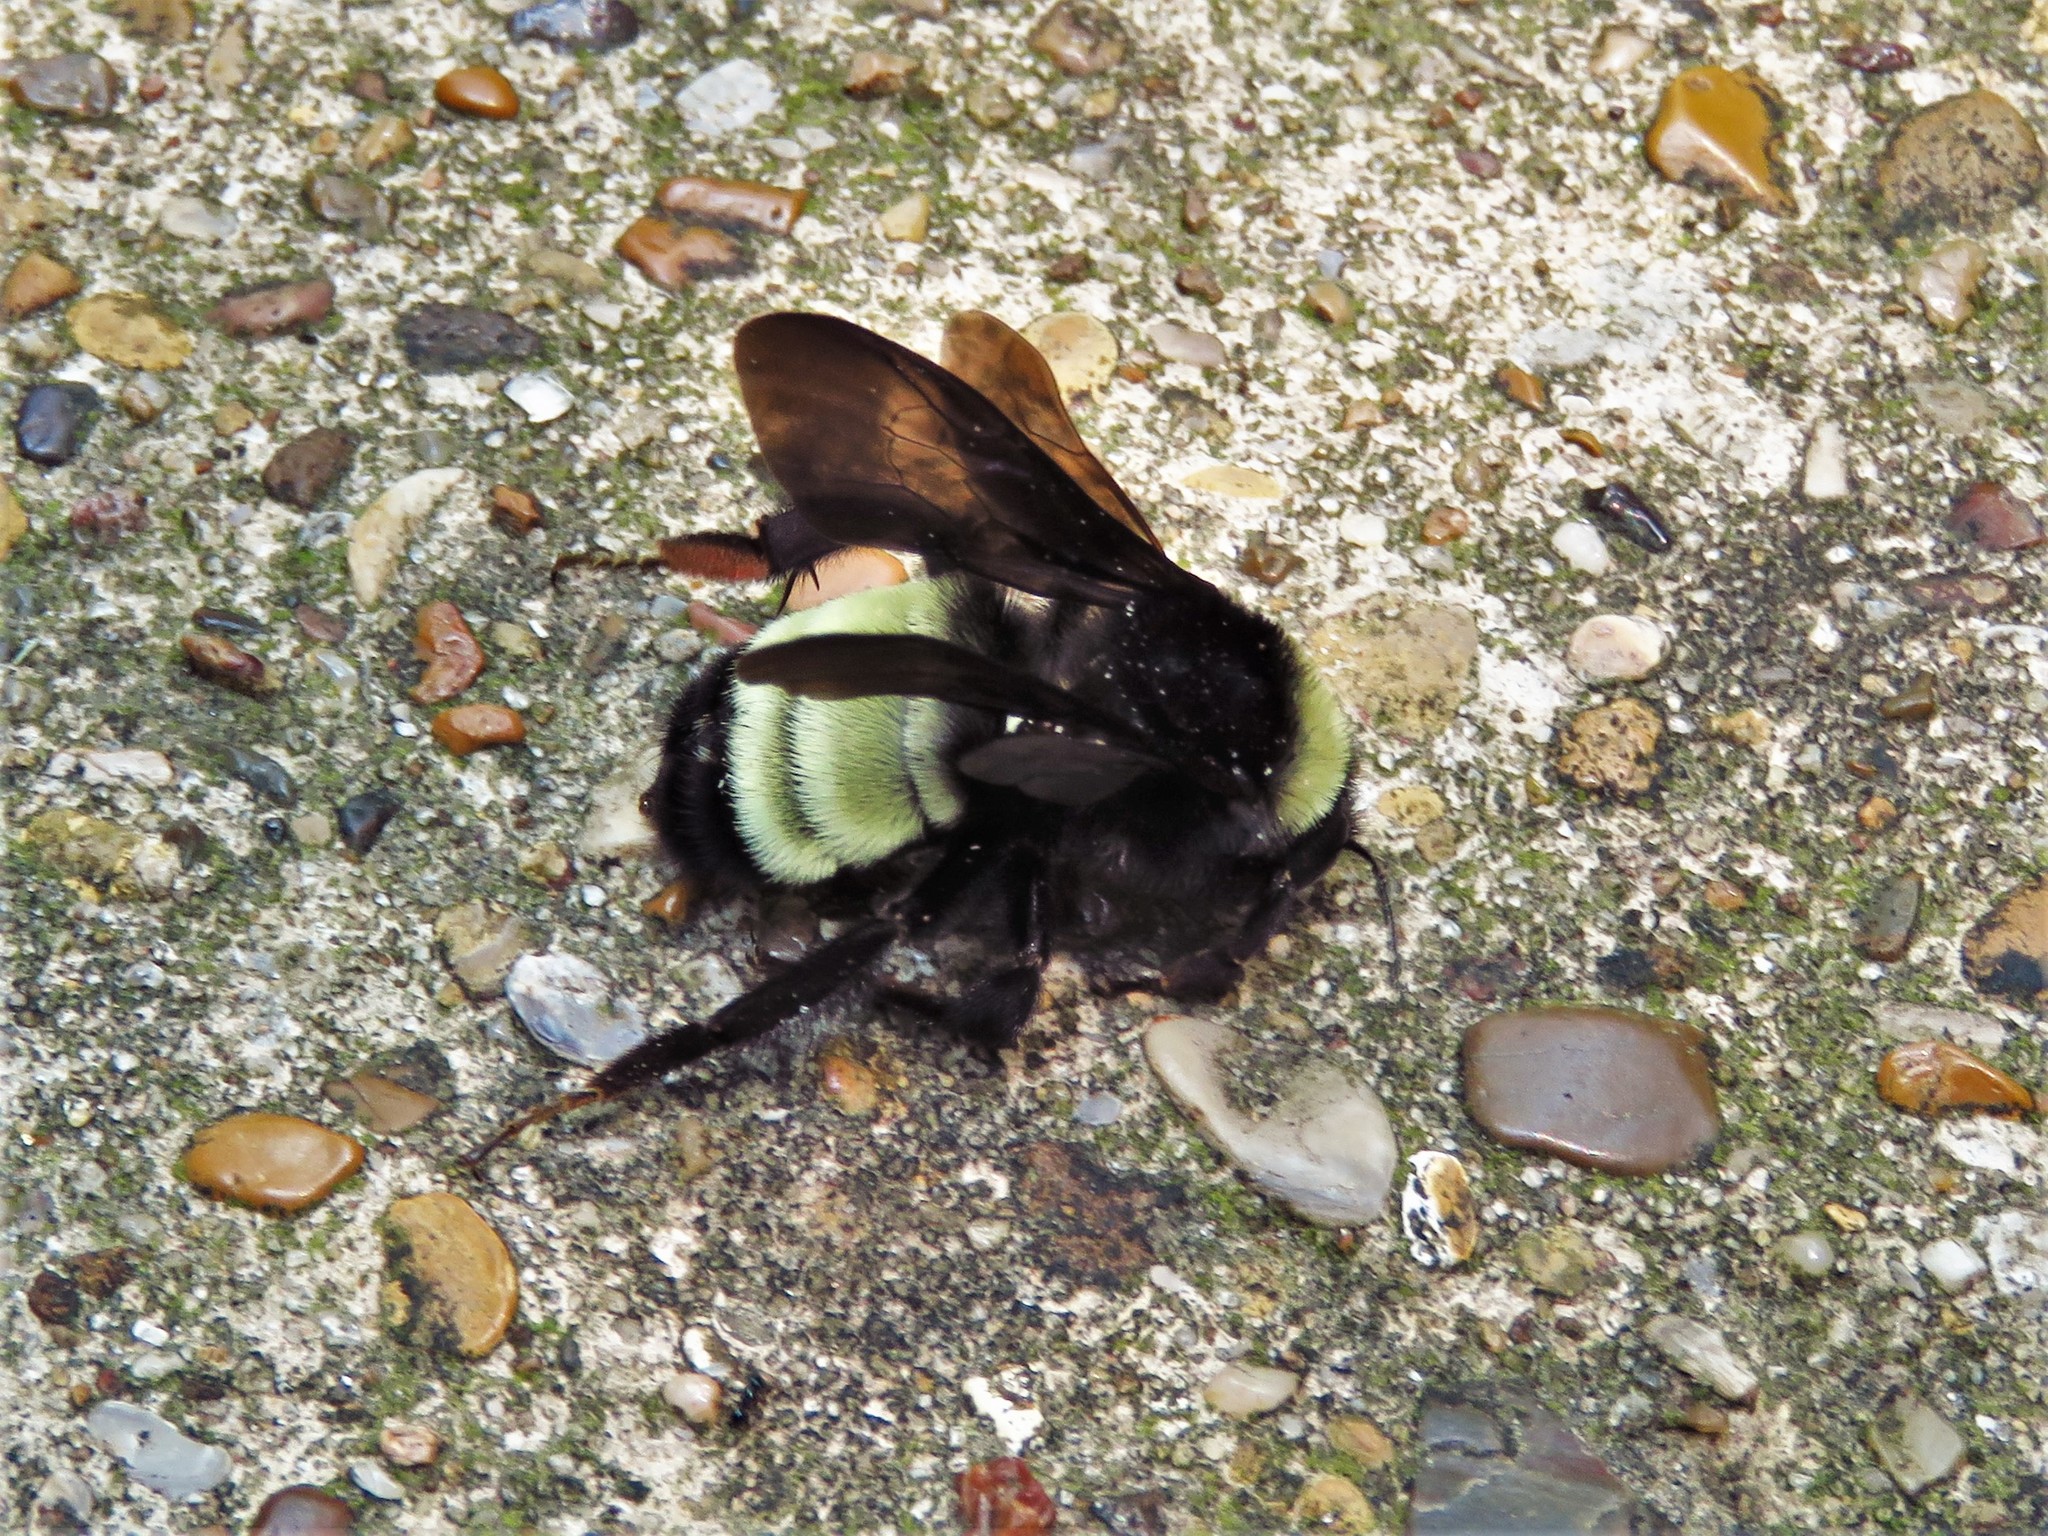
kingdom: Animalia
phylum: Arthropoda
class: Insecta
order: Hymenoptera
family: Apidae
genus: Bombus
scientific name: Bombus pensylvanicus
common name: Bumble bee
